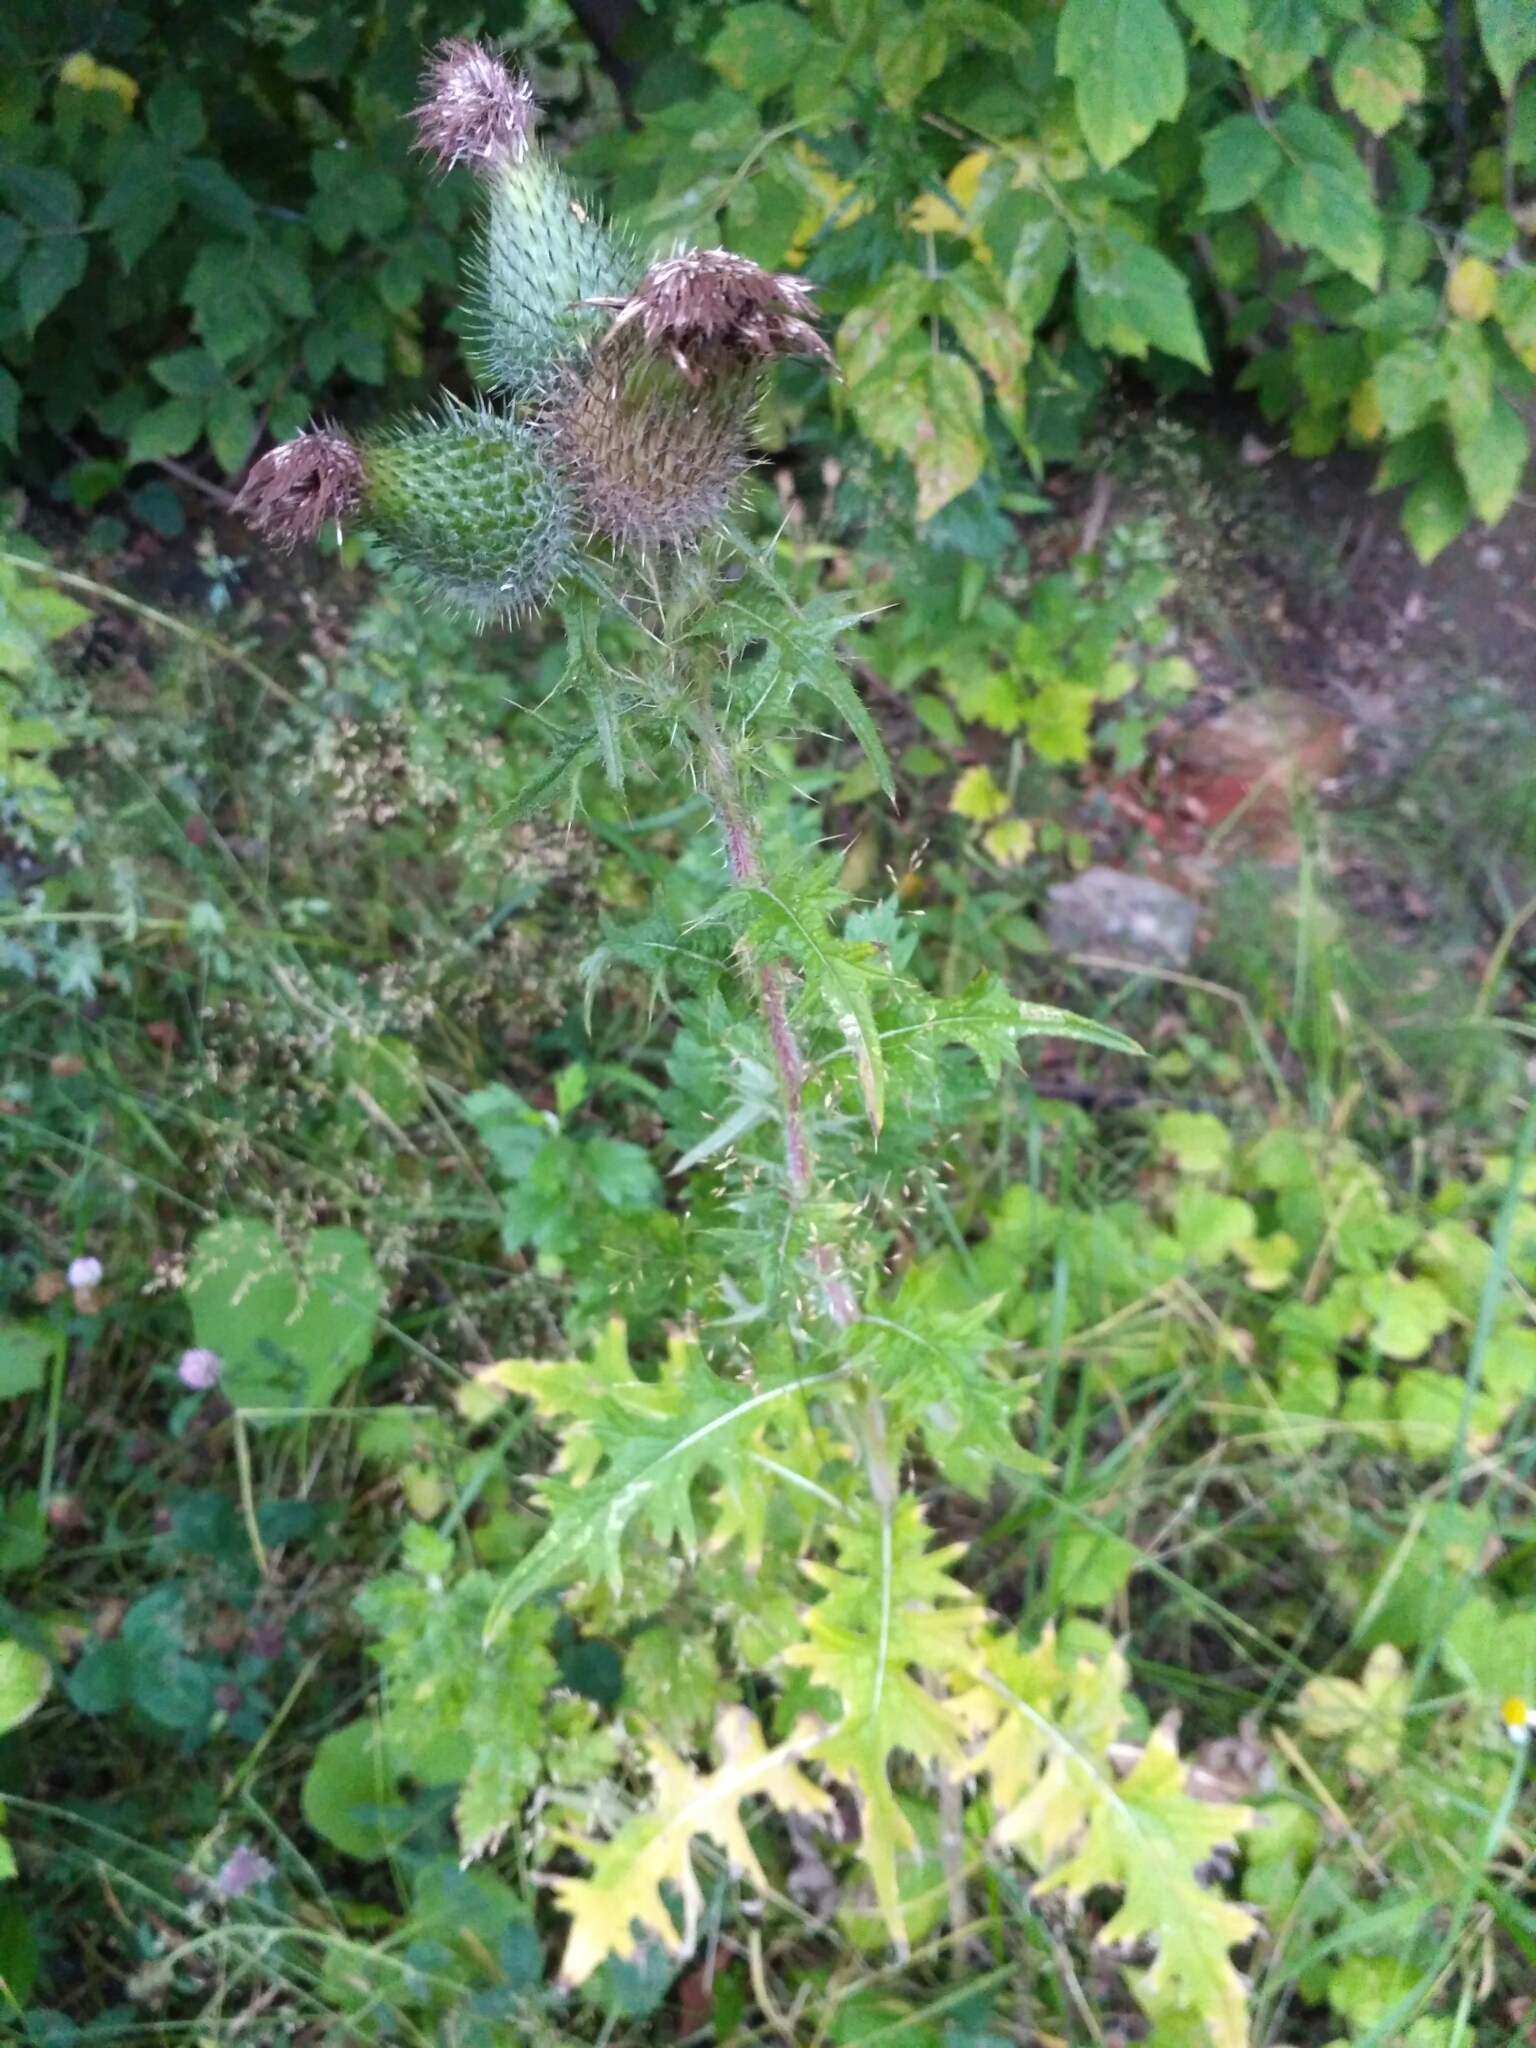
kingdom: Plantae
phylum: Tracheophyta
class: Magnoliopsida
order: Asterales
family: Asteraceae
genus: Cirsium
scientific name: Cirsium vulgare
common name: Bull thistle
